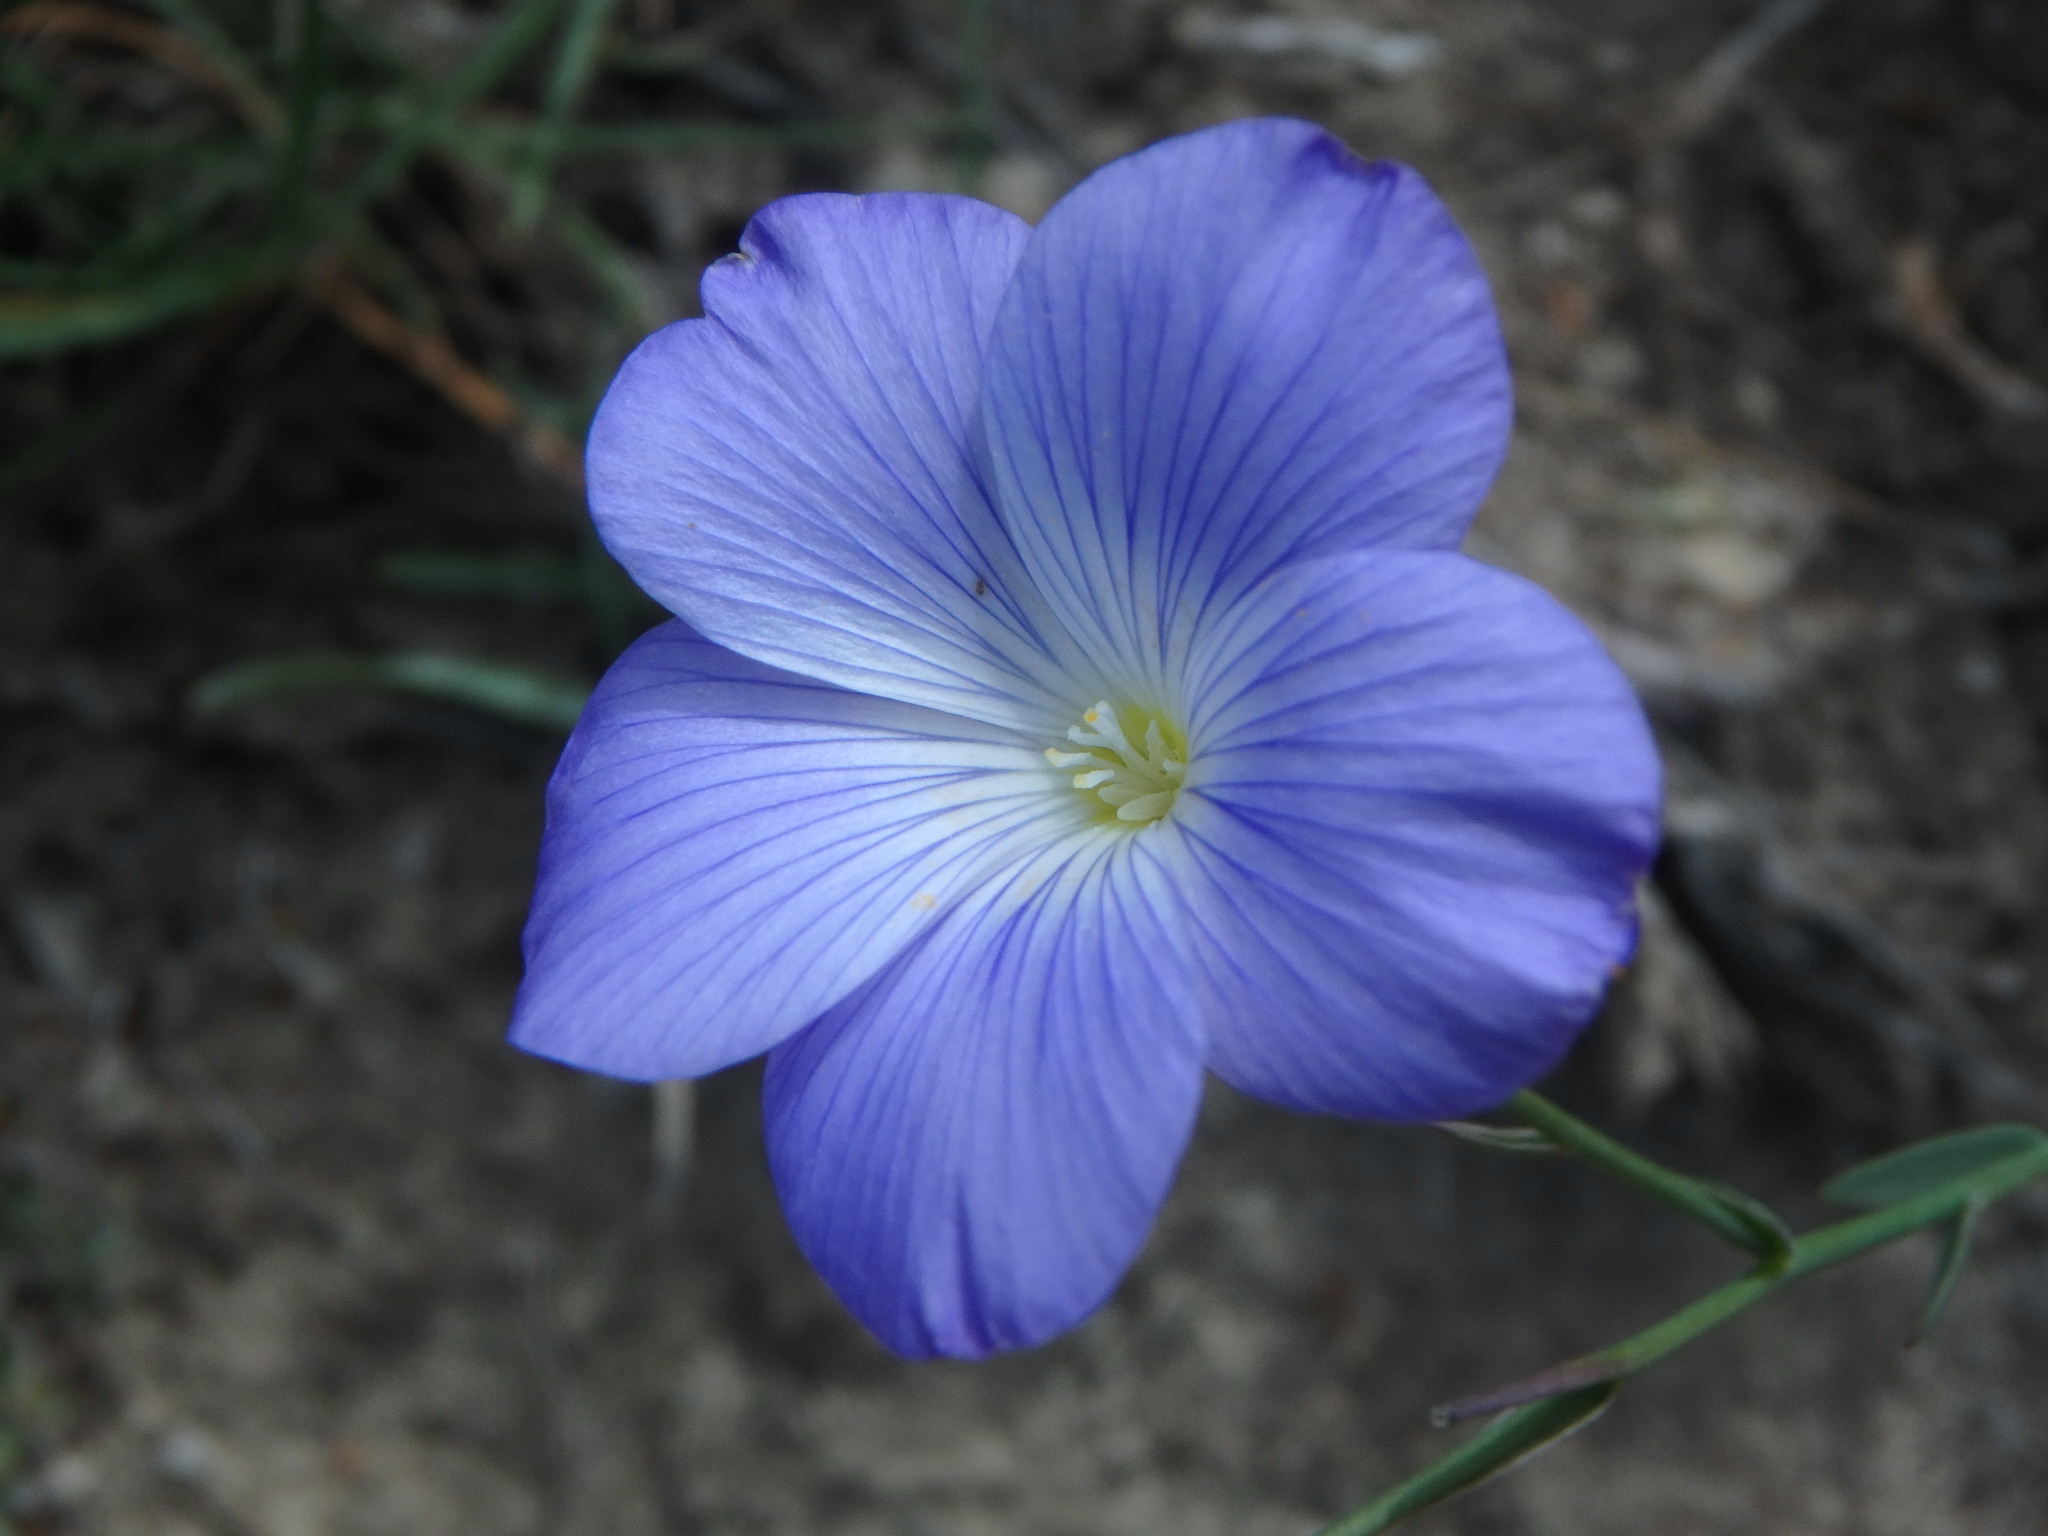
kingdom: Plantae
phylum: Tracheophyta
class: Magnoliopsida
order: Malpighiales
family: Linaceae
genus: Linum
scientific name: Linum narbonense
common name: Flax
